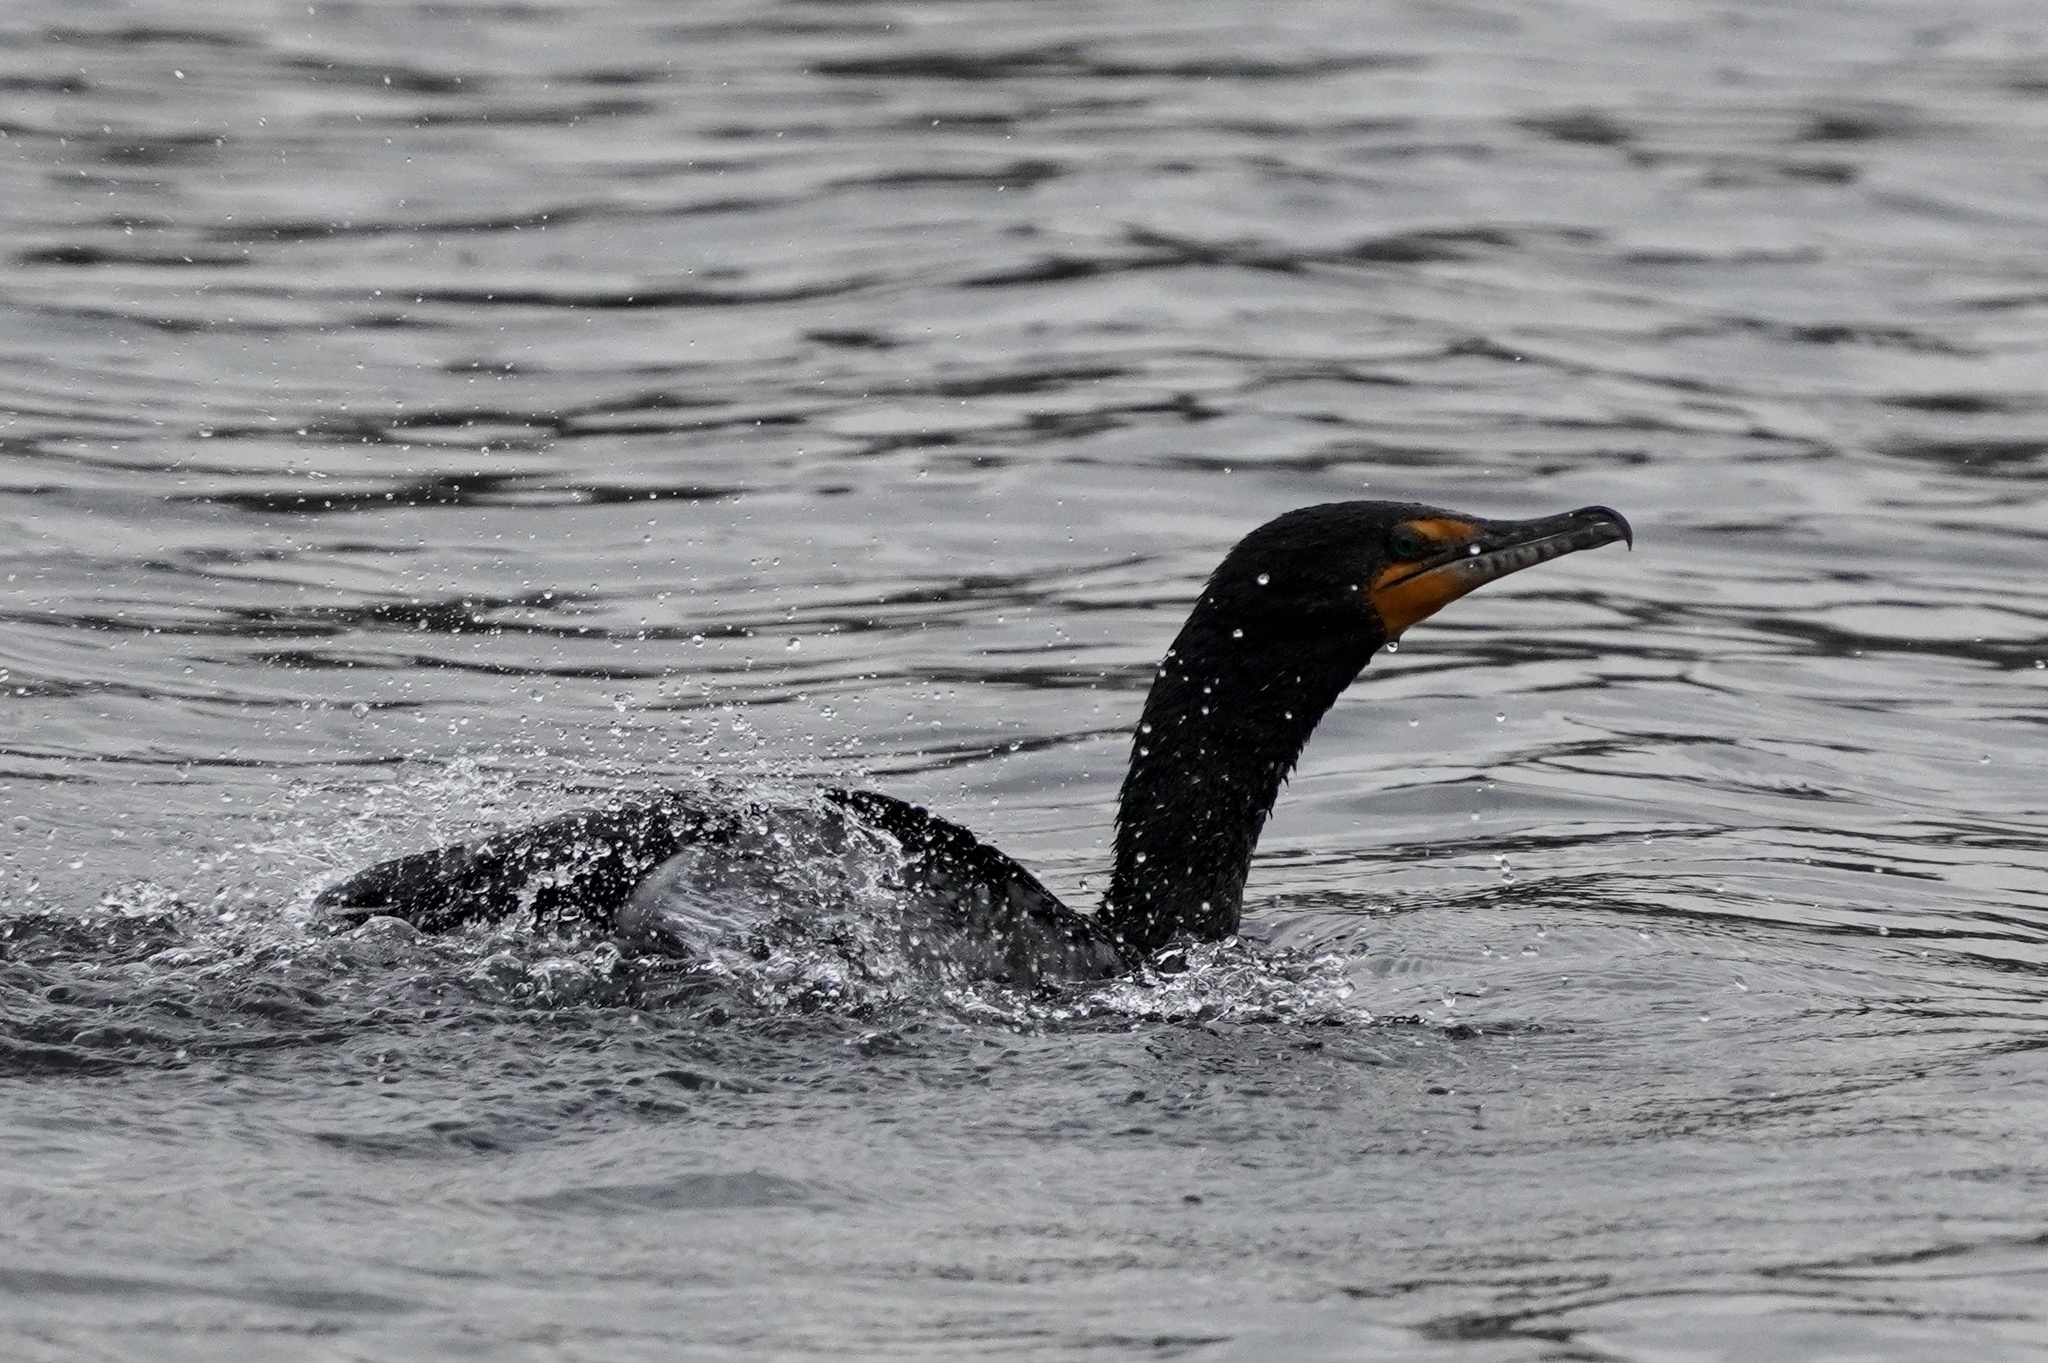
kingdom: Animalia
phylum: Chordata
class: Aves
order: Suliformes
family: Phalacrocoracidae
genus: Phalacrocorax
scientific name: Phalacrocorax auritus
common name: Double-crested cormorant
